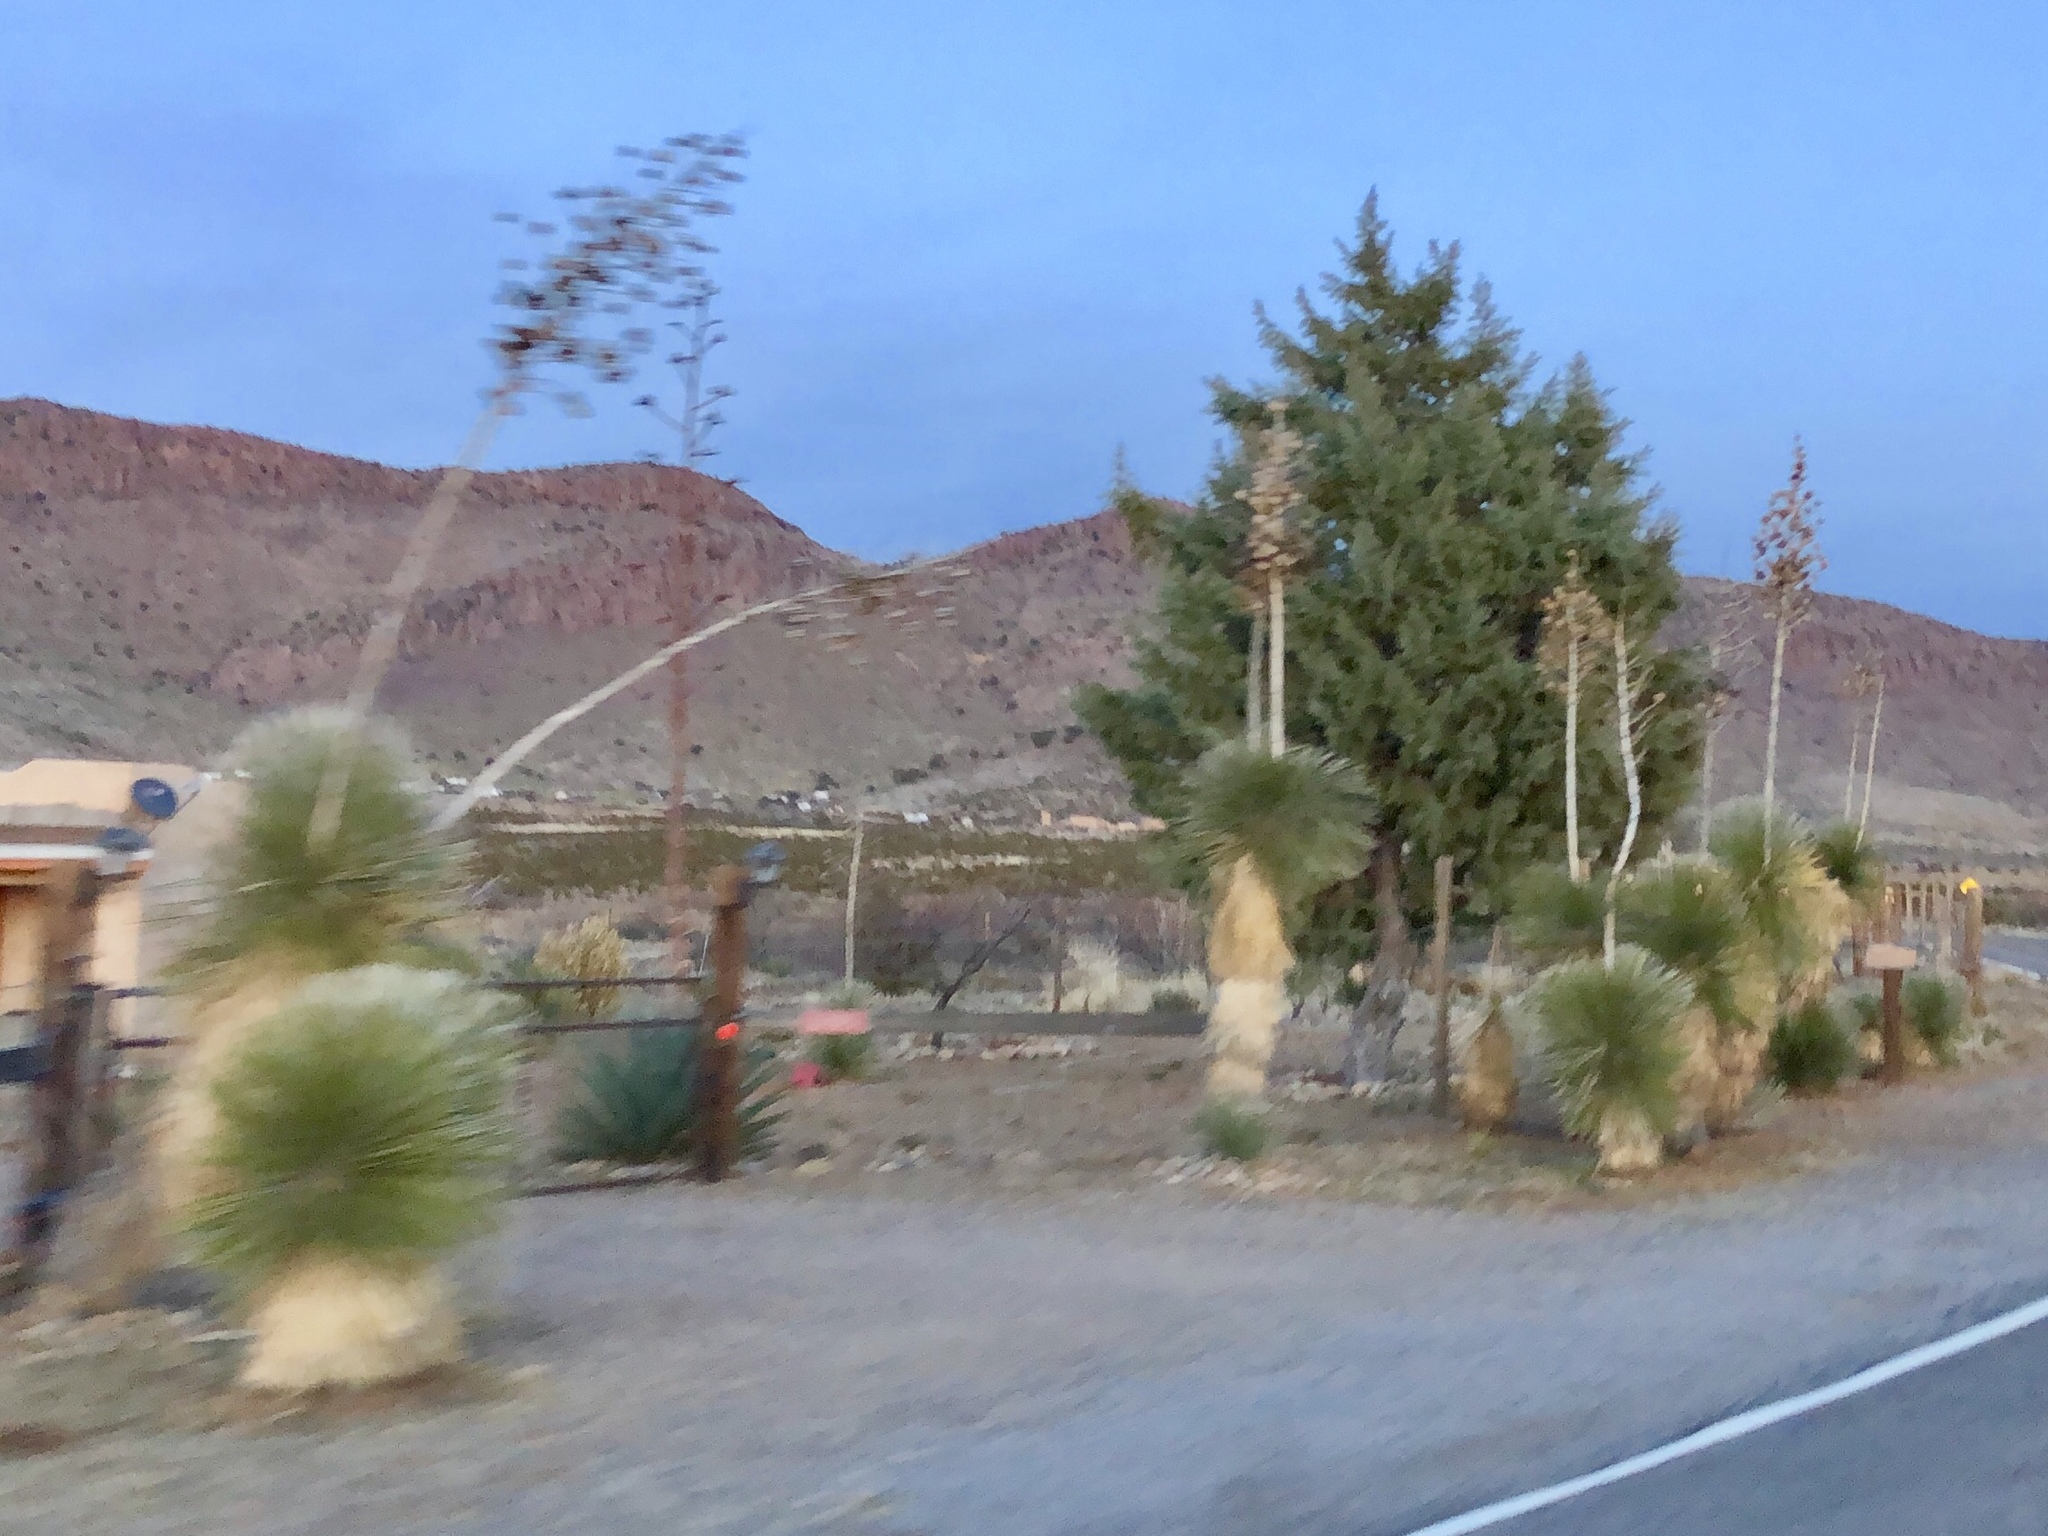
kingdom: Plantae
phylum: Tracheophyta
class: Liliopsida
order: Asparagales
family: Asparagaceae
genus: Yucca
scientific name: Yucca elata
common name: Palmella
